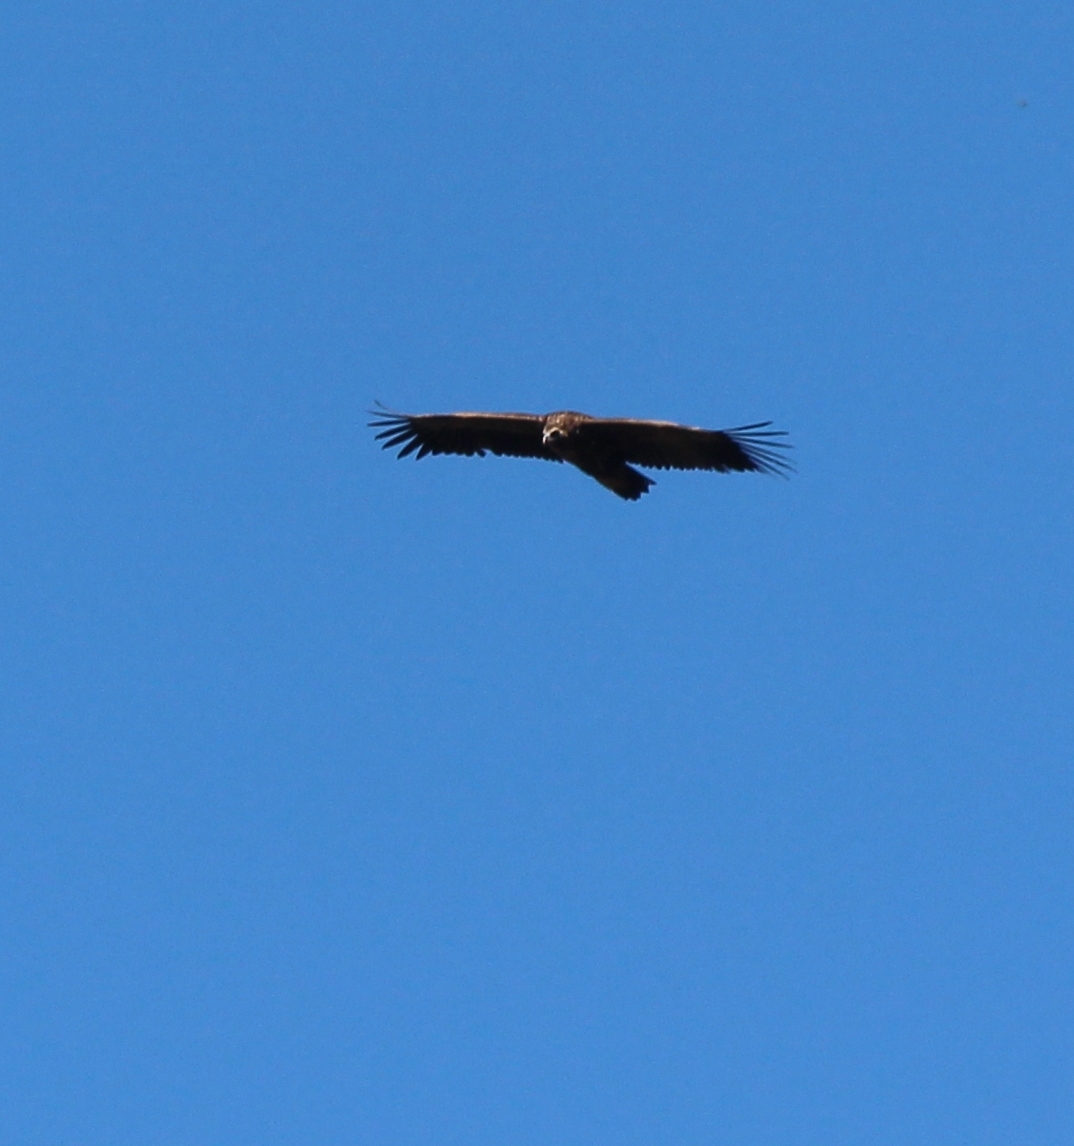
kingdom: Animalia
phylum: Chordata
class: Aves
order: Accipitriformes
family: Accipitridae
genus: Aegypius
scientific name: Aegypius monachus
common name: Cinereous vulture
